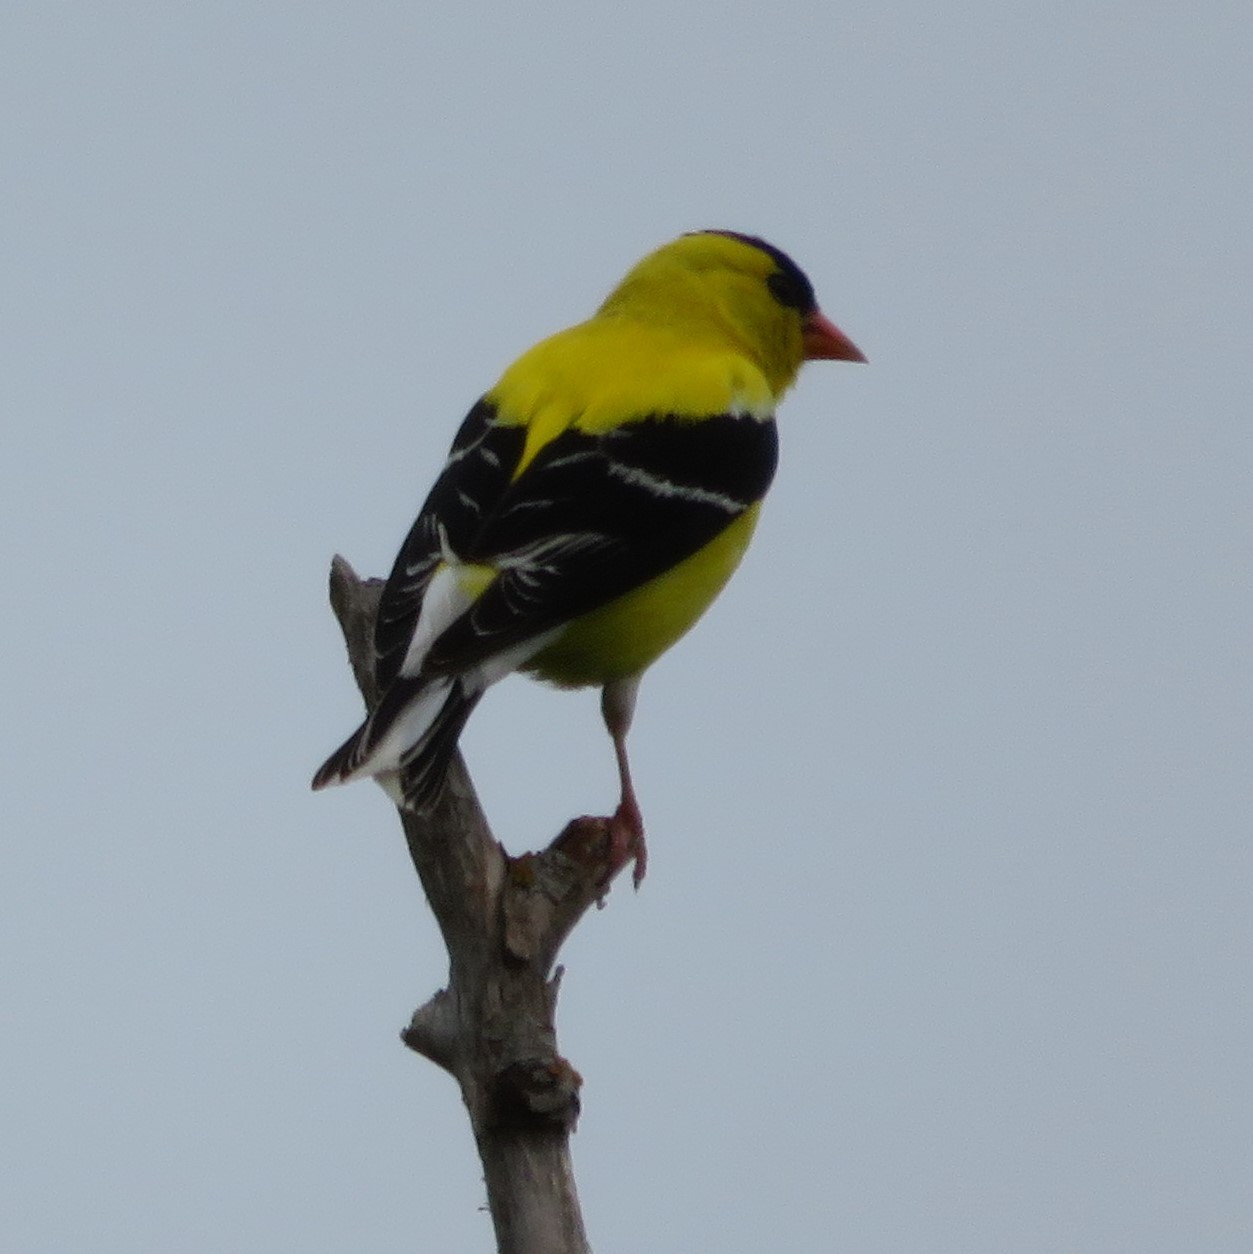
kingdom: Animalia
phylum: Chordata
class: Aves
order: Passeriformes
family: Fringillidae
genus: Spinus
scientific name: Spinus tristis
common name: American goldfinch
